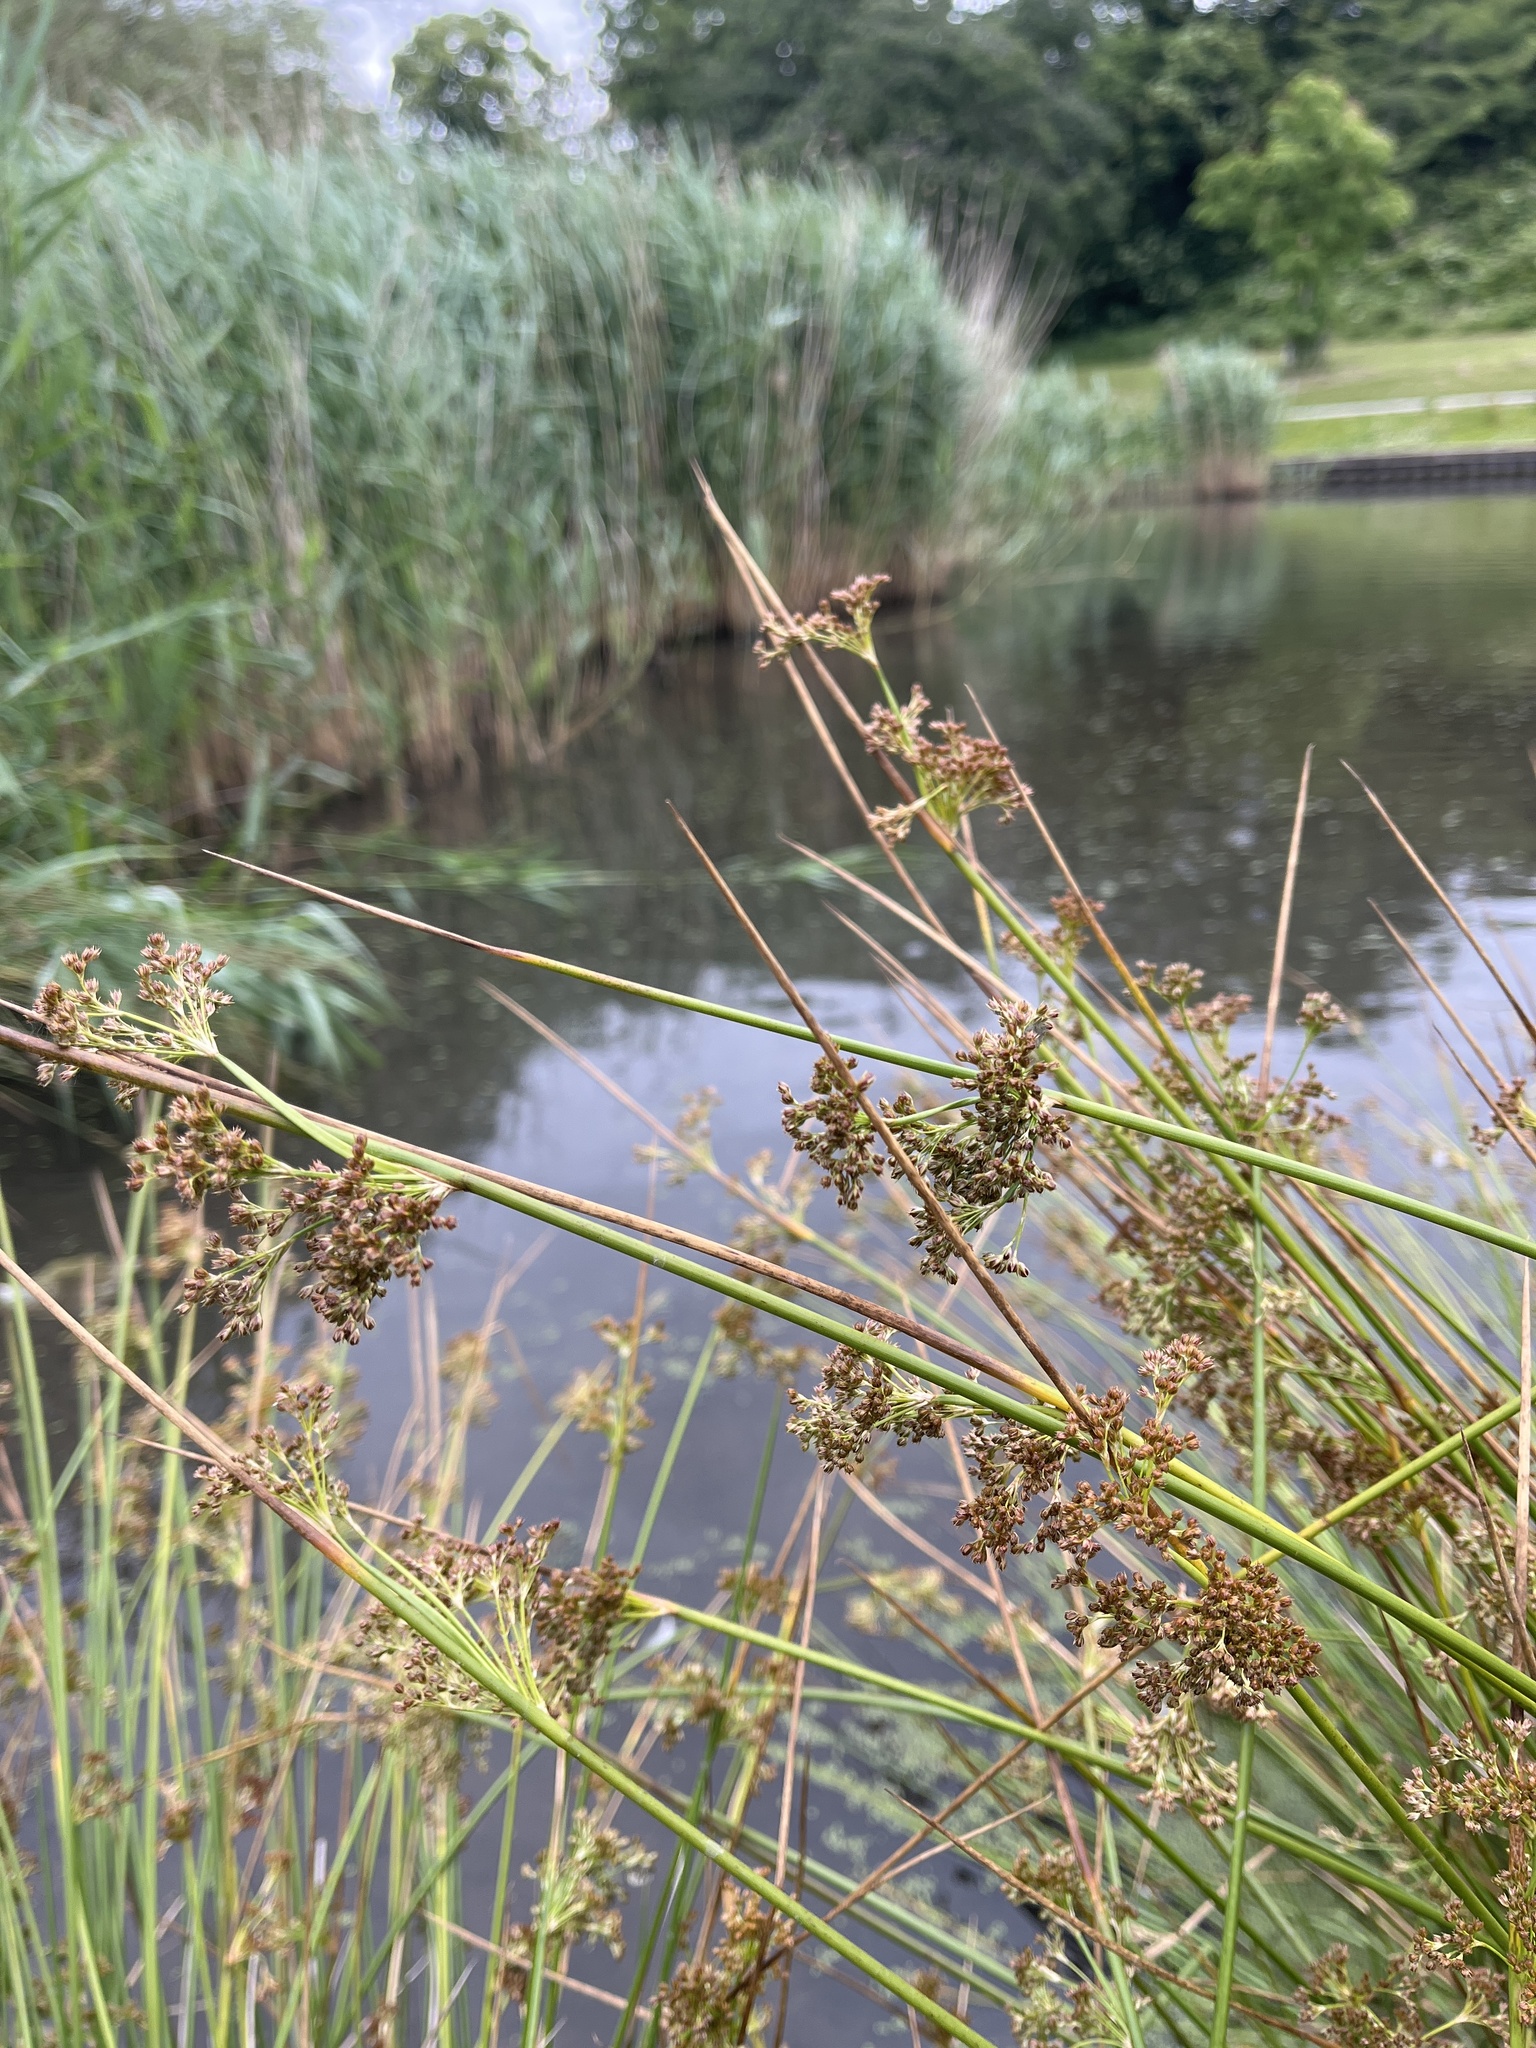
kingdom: Plantae
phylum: Tracheophyta
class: Liliopsida
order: Poales
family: Juncaceae
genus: Juncus
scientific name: Juncus effusus
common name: Soft rush
